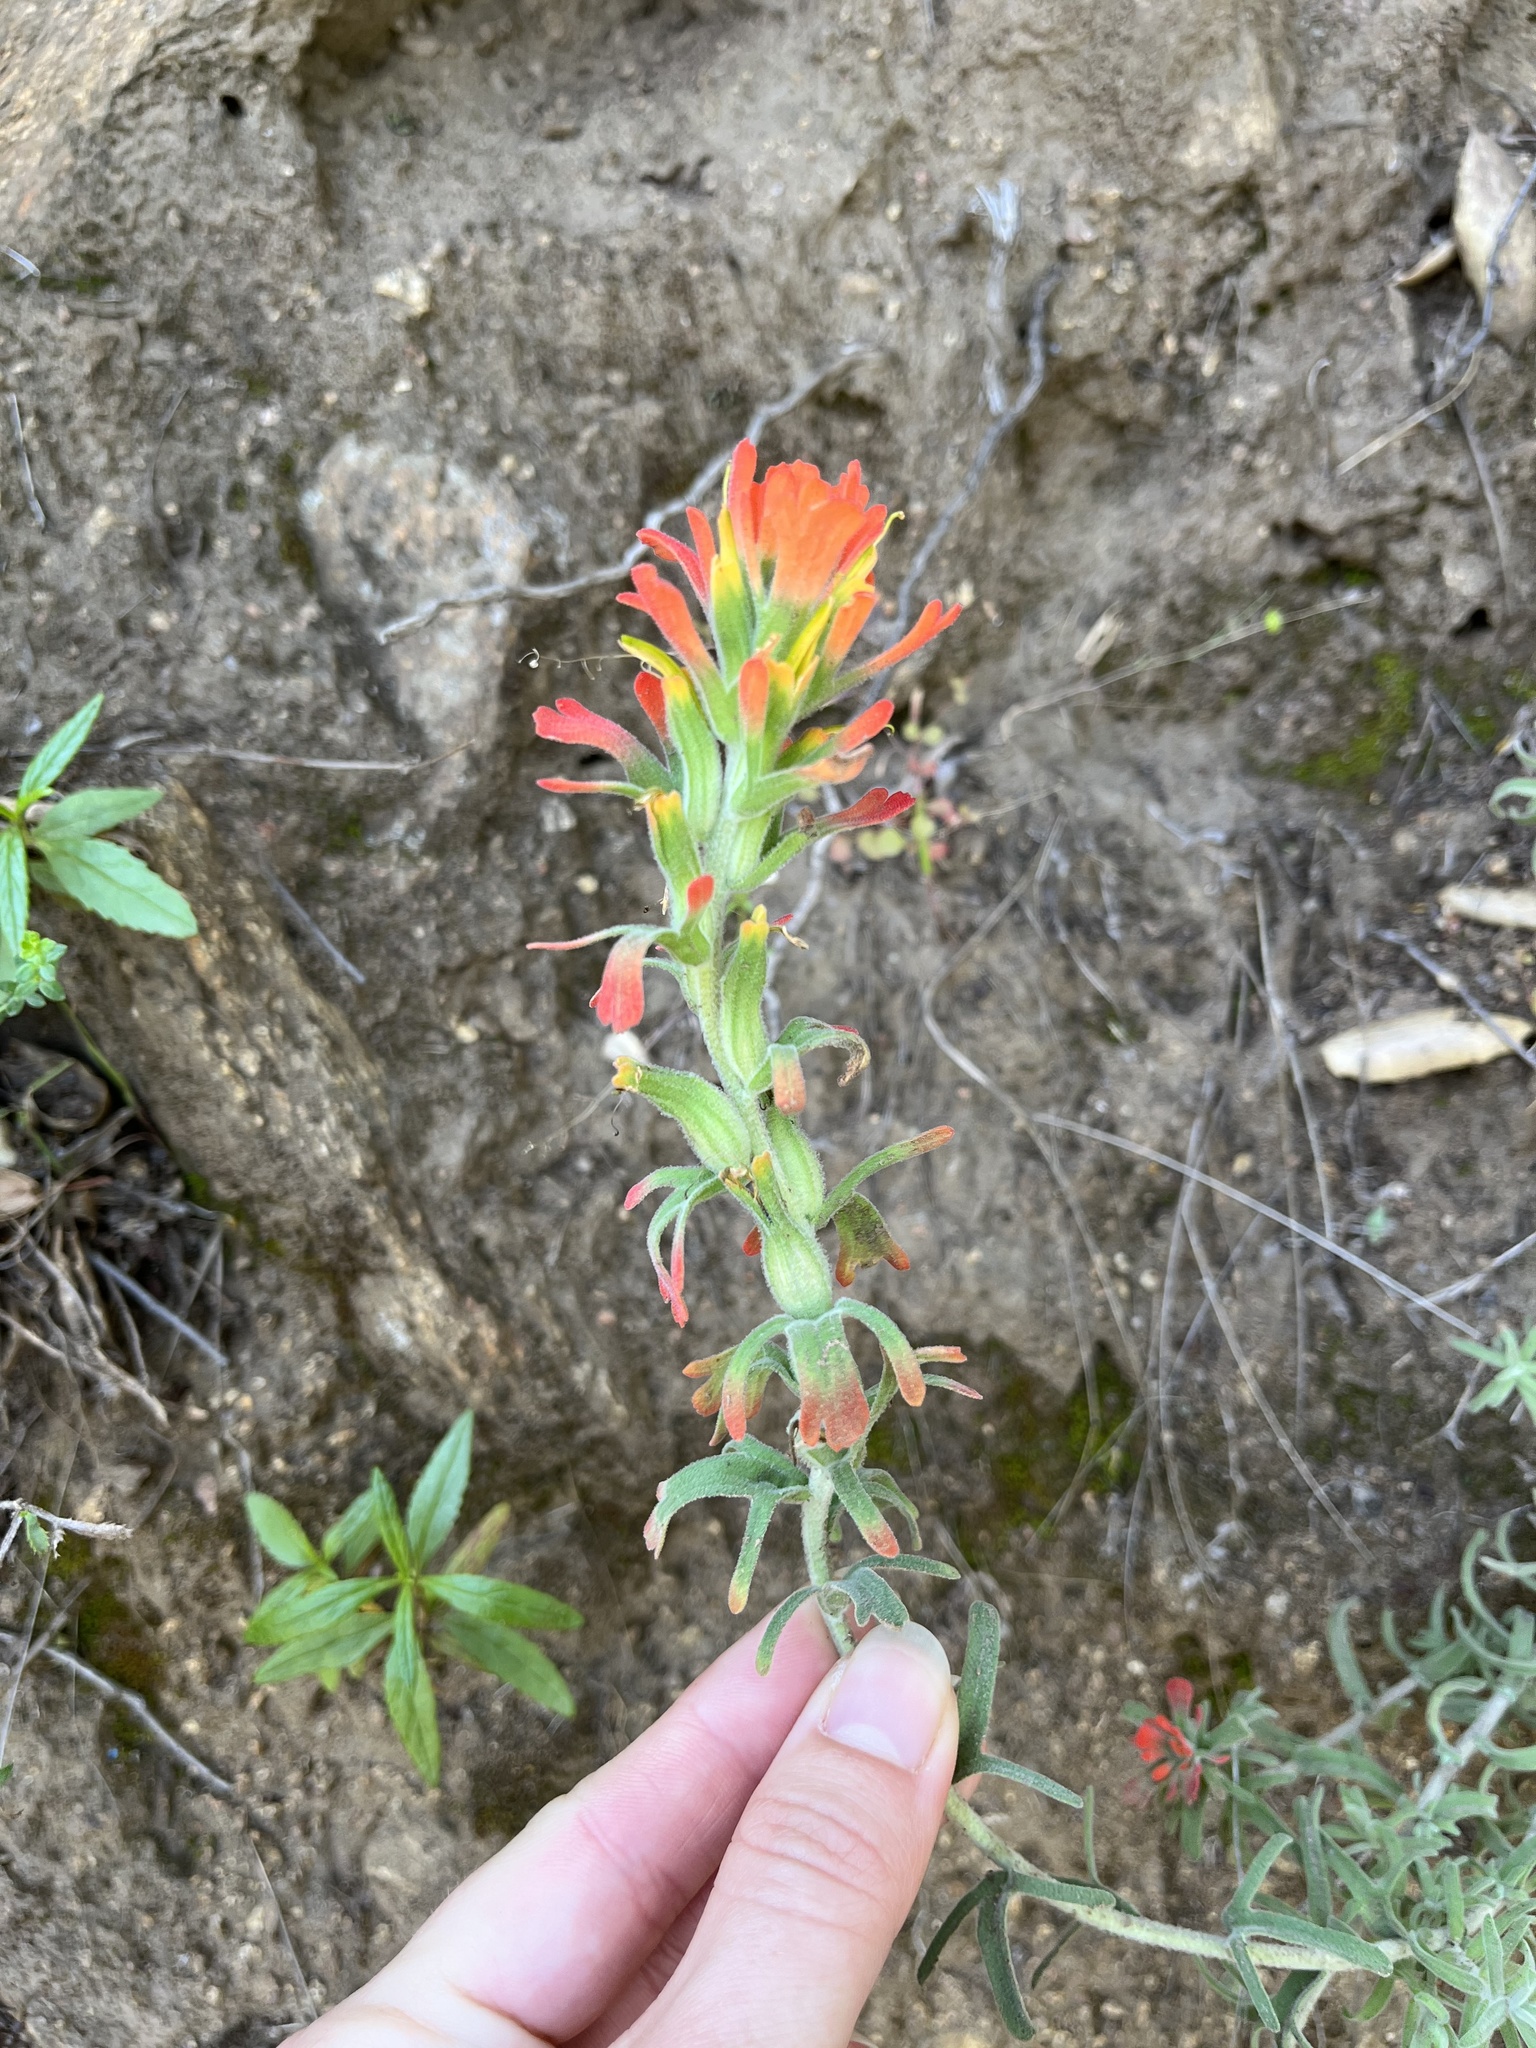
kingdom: Plantae
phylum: Tracheophyta
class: Magnoliopsida
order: Lamiales
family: Orobanchaceae
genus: Castilleja
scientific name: Castilleja foliolosa
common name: Woolly indian paintbrush
